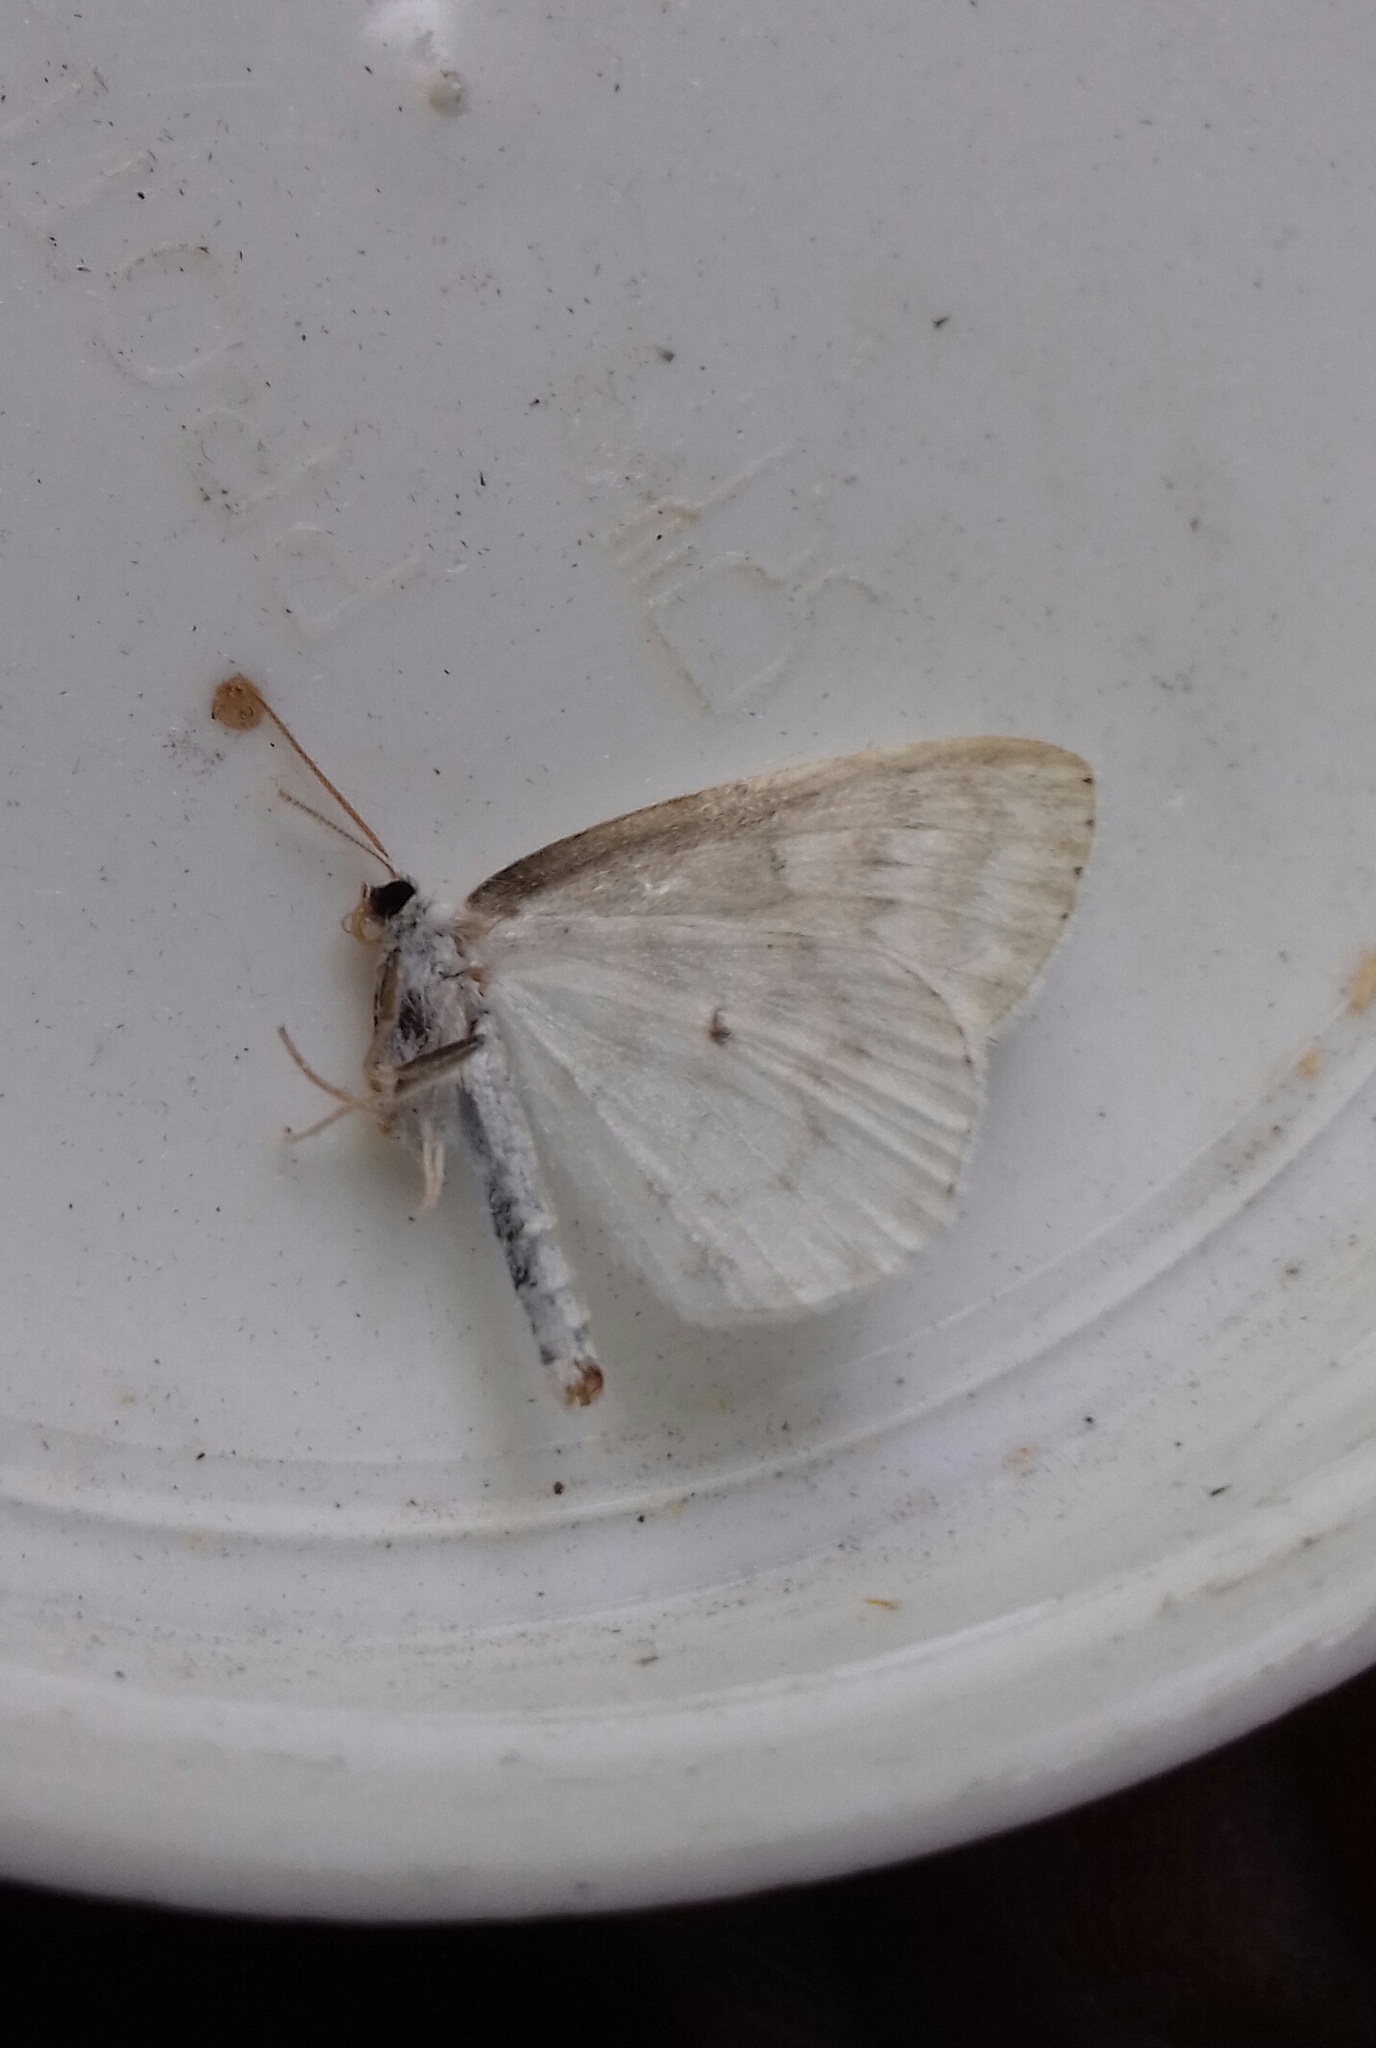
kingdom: Animalia
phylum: Arthropoda
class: Insecta
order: Lepidoptera
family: Geometridae
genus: Scopula
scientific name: Scopula nemoraria
